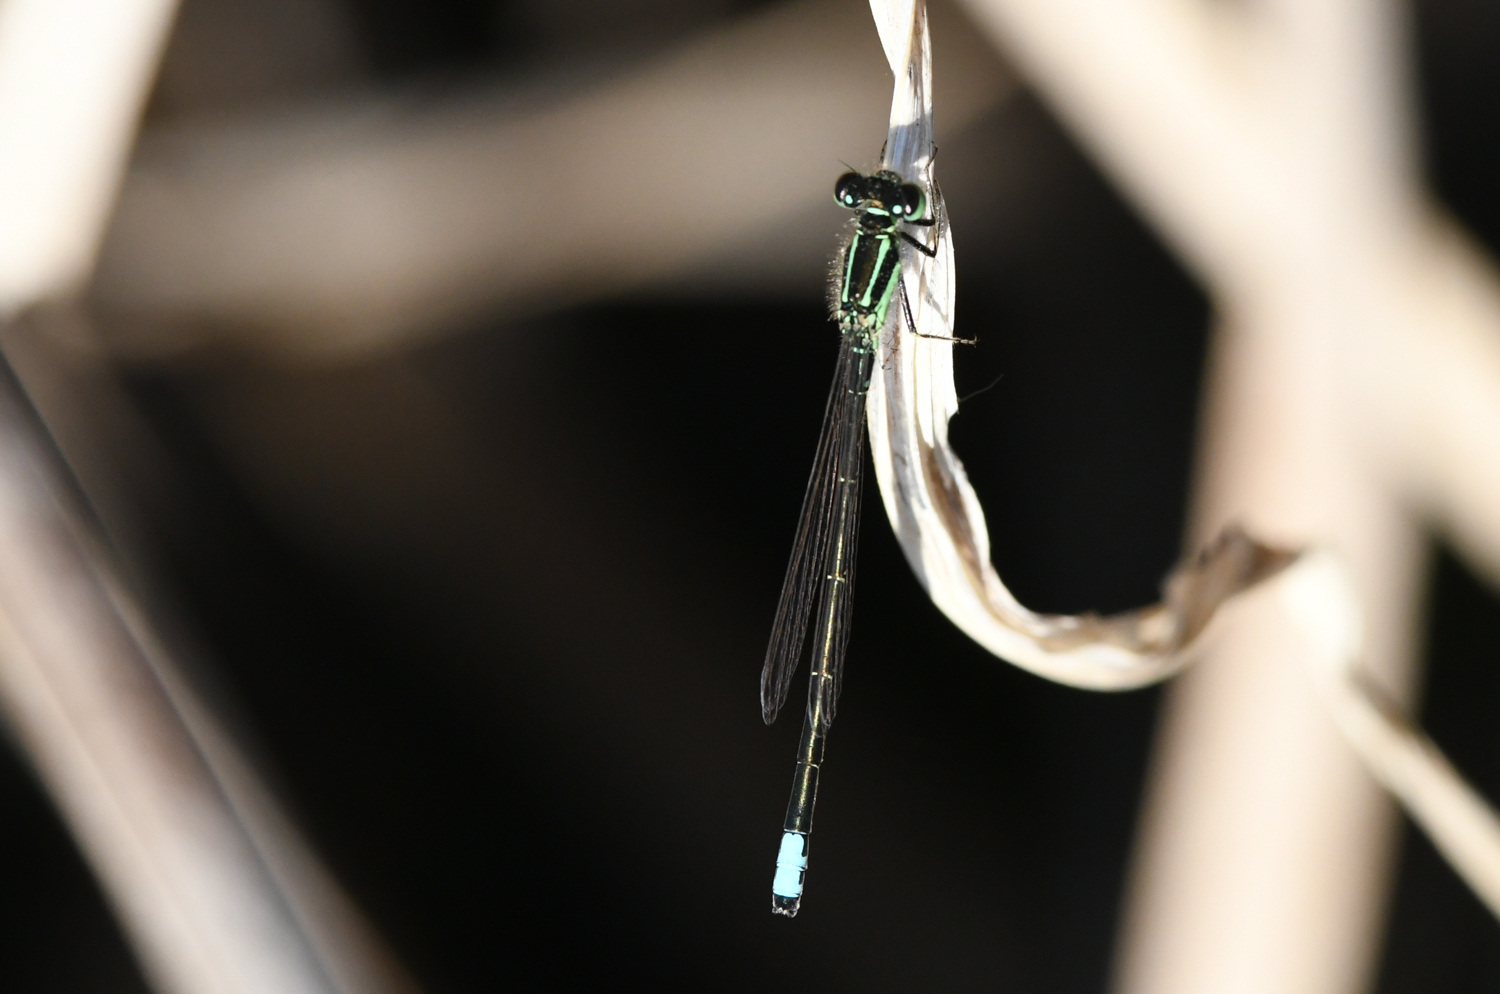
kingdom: Animalia
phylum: Arthropoda
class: Insecta
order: Odonata
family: Coenagrionidae
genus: Ischnura
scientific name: Ischnura verticalis
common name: Eastern forktail
